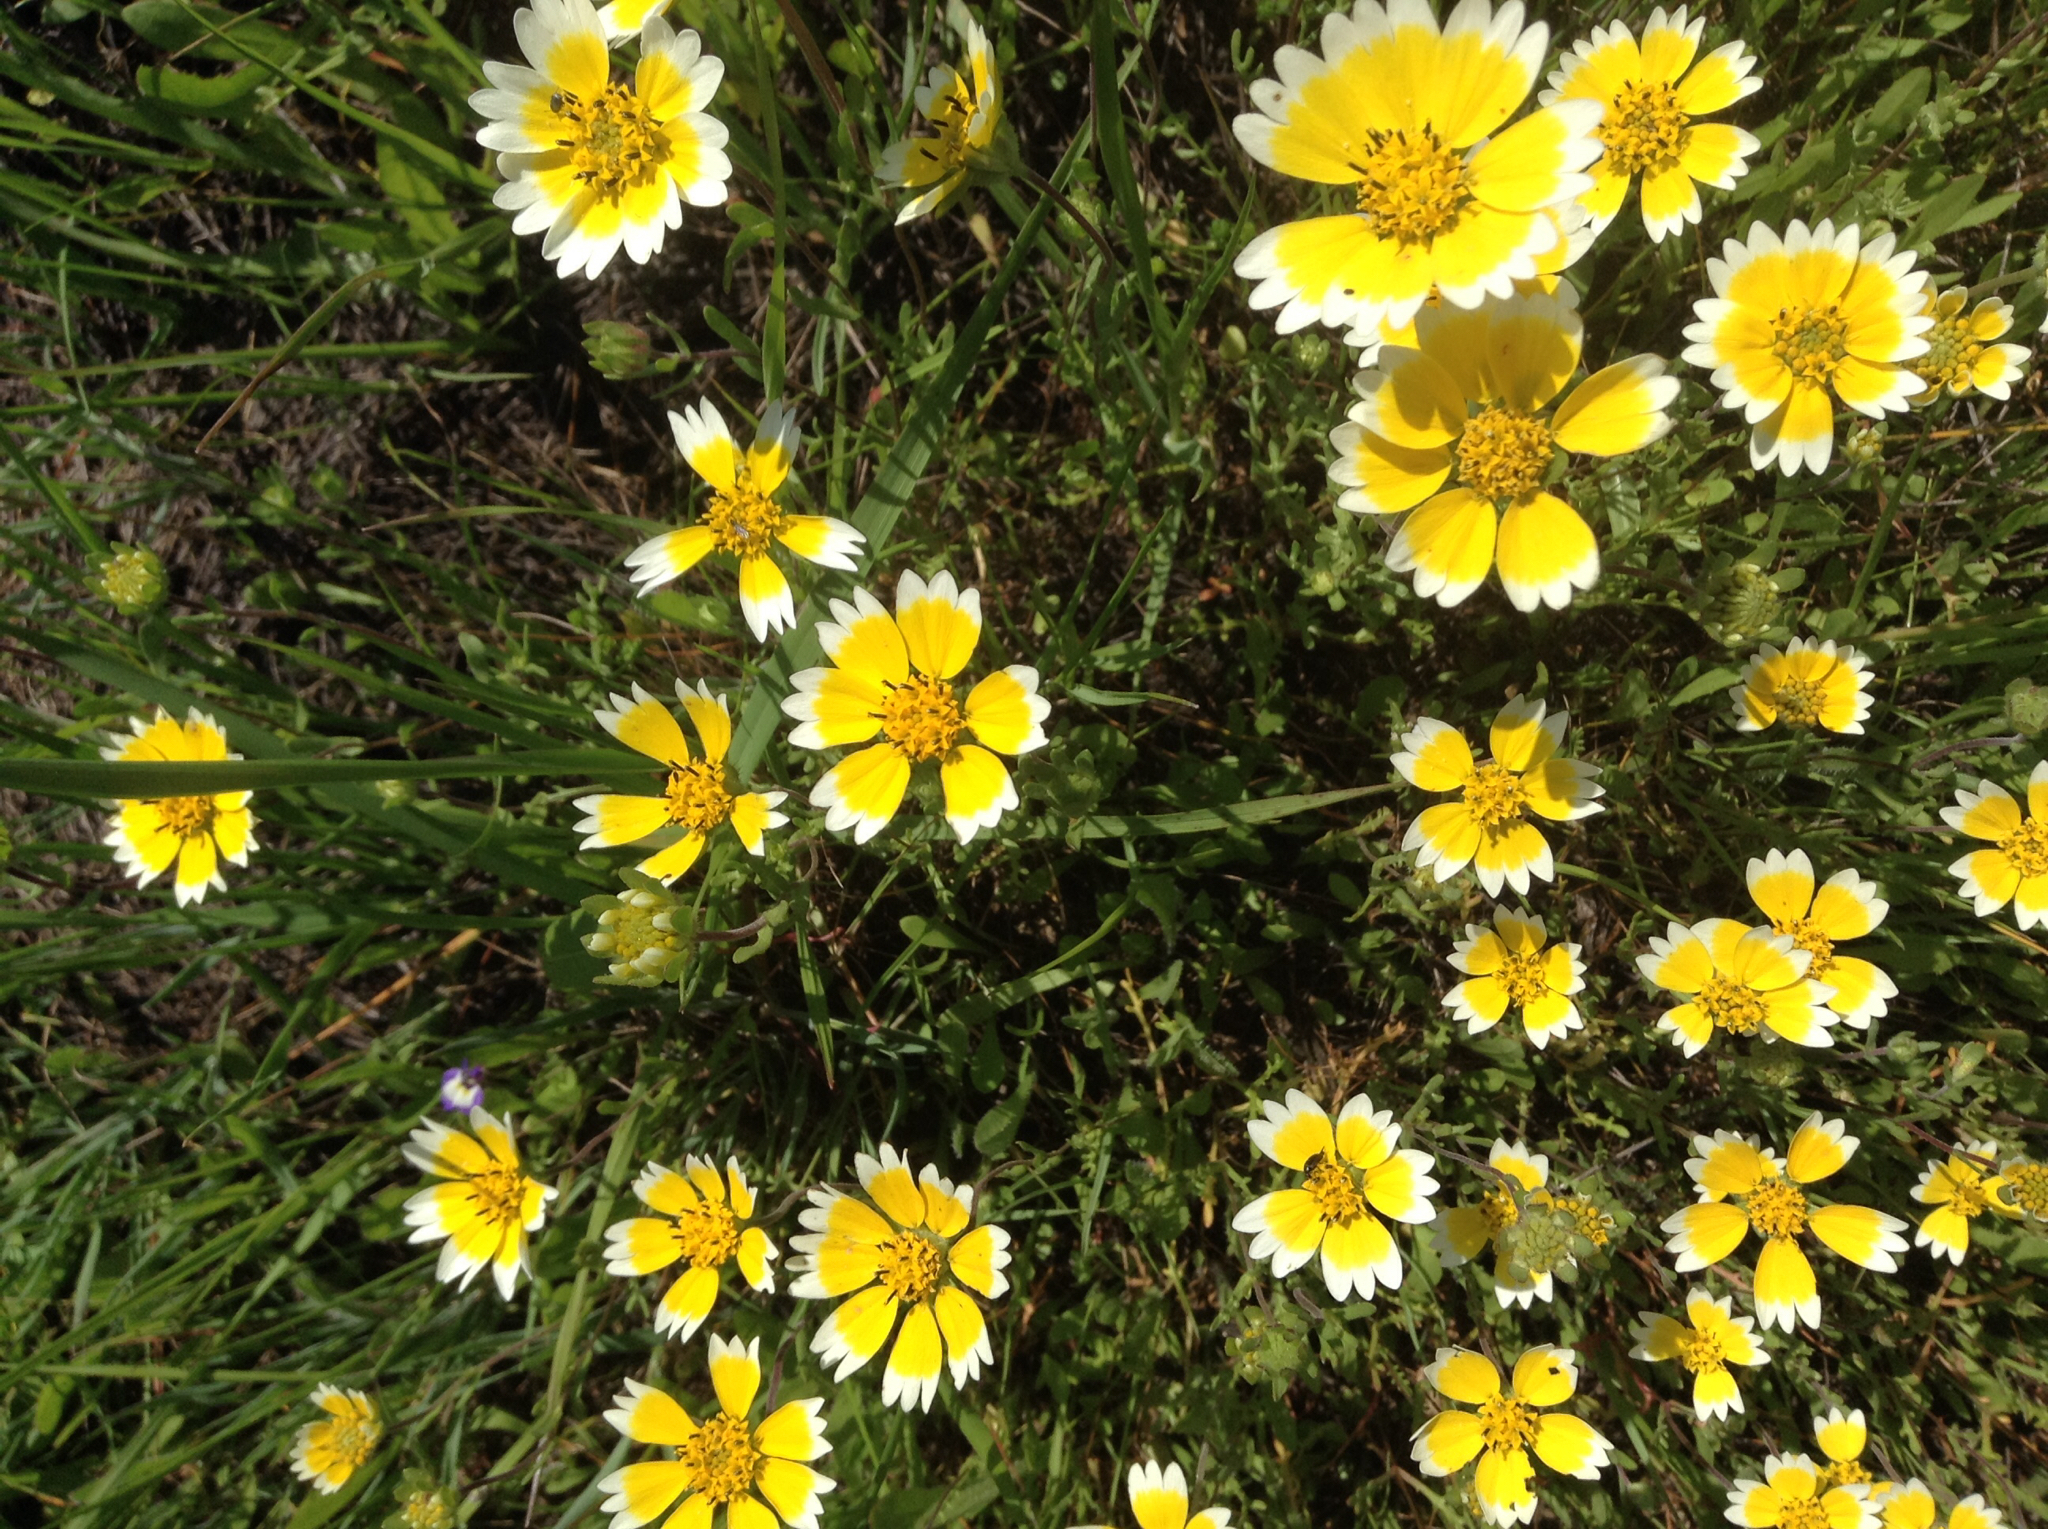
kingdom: Plantae
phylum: Tracheophyta
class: Magnoliopsida
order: Asterales
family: Asteraceae
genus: Layia
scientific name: Layia fremontii
